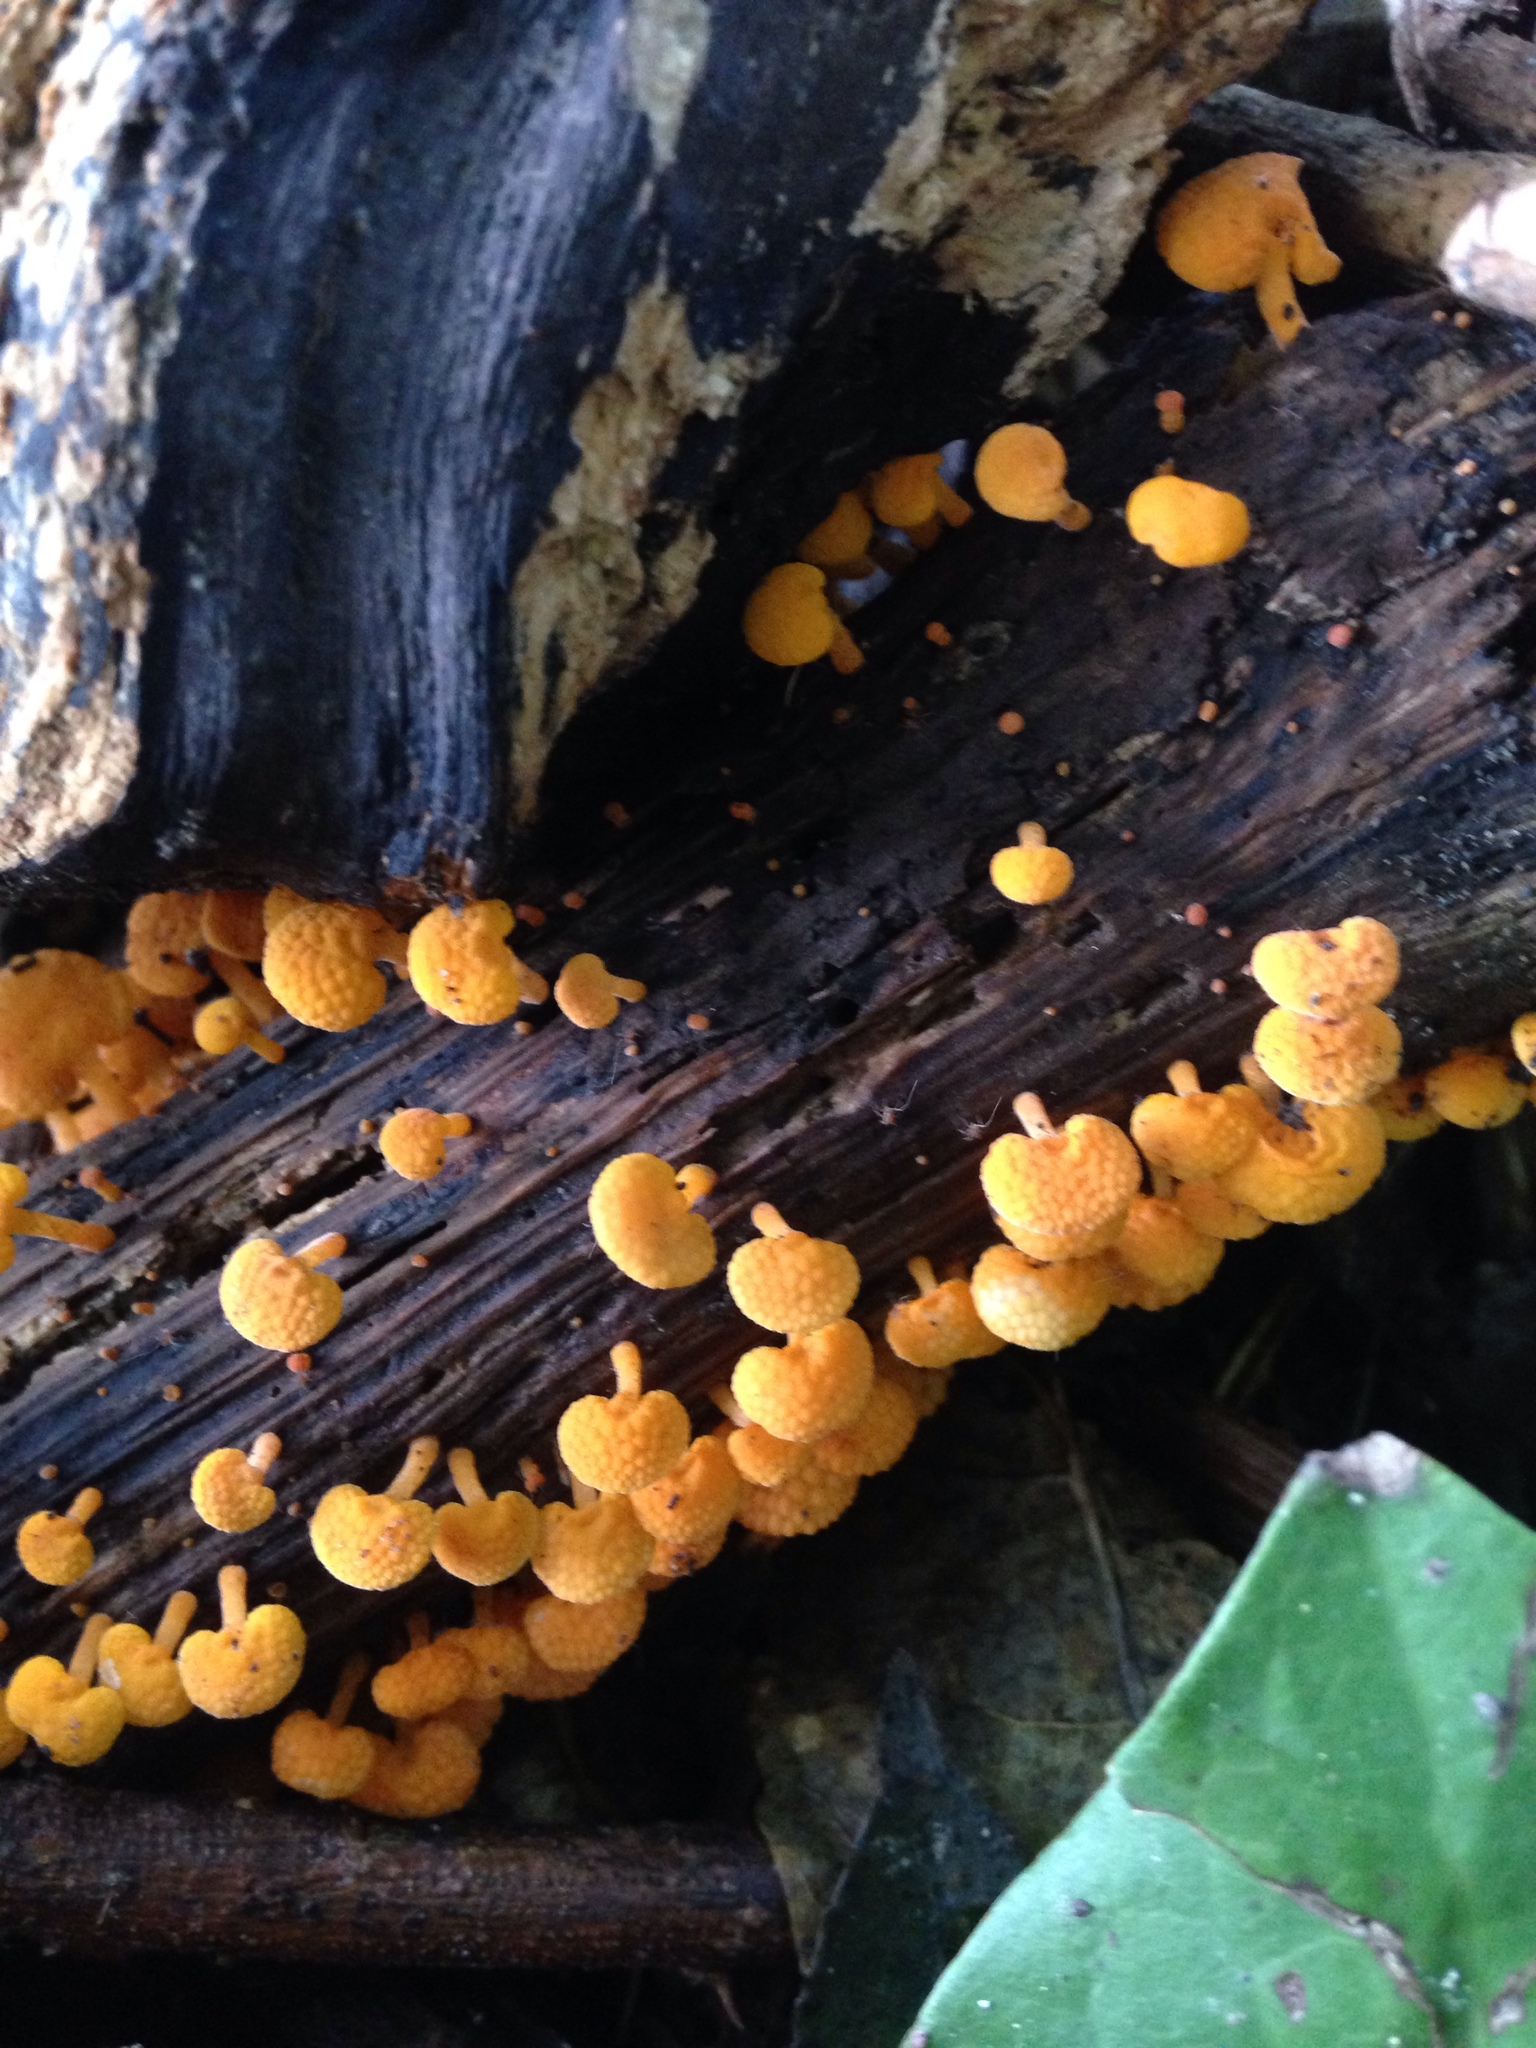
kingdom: Fungi
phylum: Basidiomycota
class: Agaricomycetes
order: Agaricales
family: Mycenaceae
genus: Favolaschia
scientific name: Favolaschia claudopus
